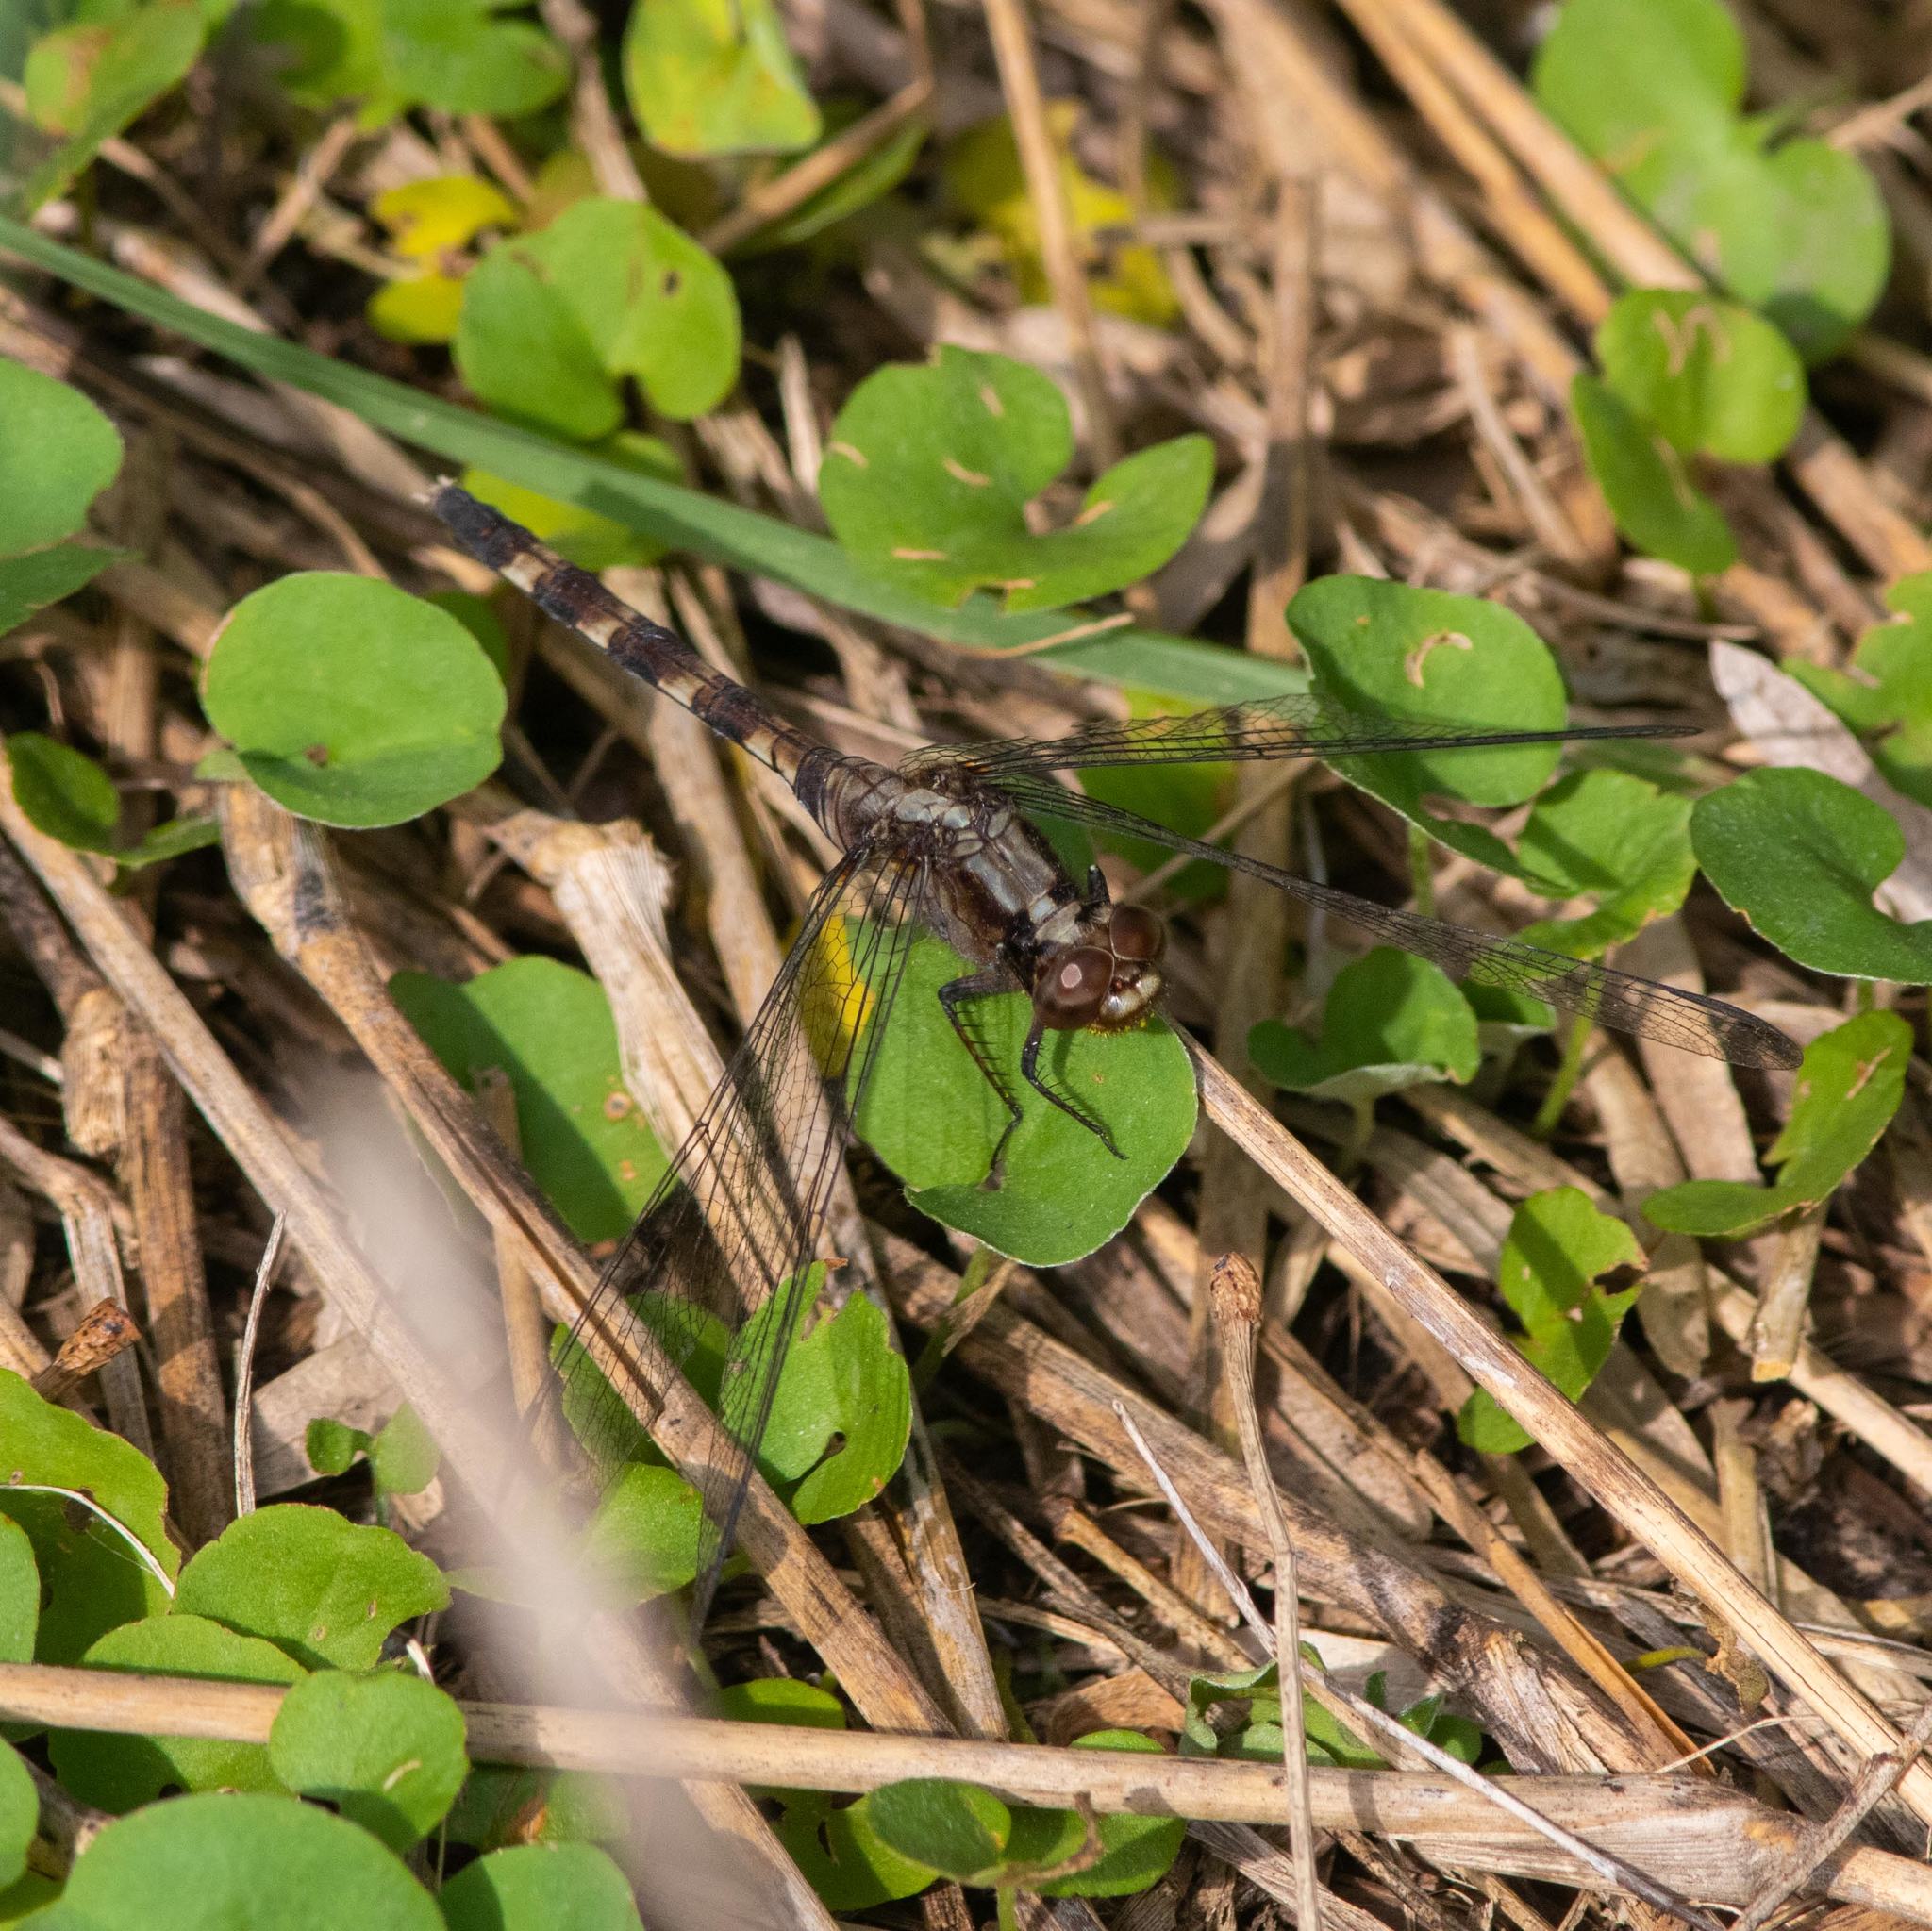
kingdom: Animalia
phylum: Arthropoda
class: Insecta
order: Odonata
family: Libellulidae
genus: Erythemis
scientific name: Erythemis plebeja
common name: Pin-tailed pondhawk
